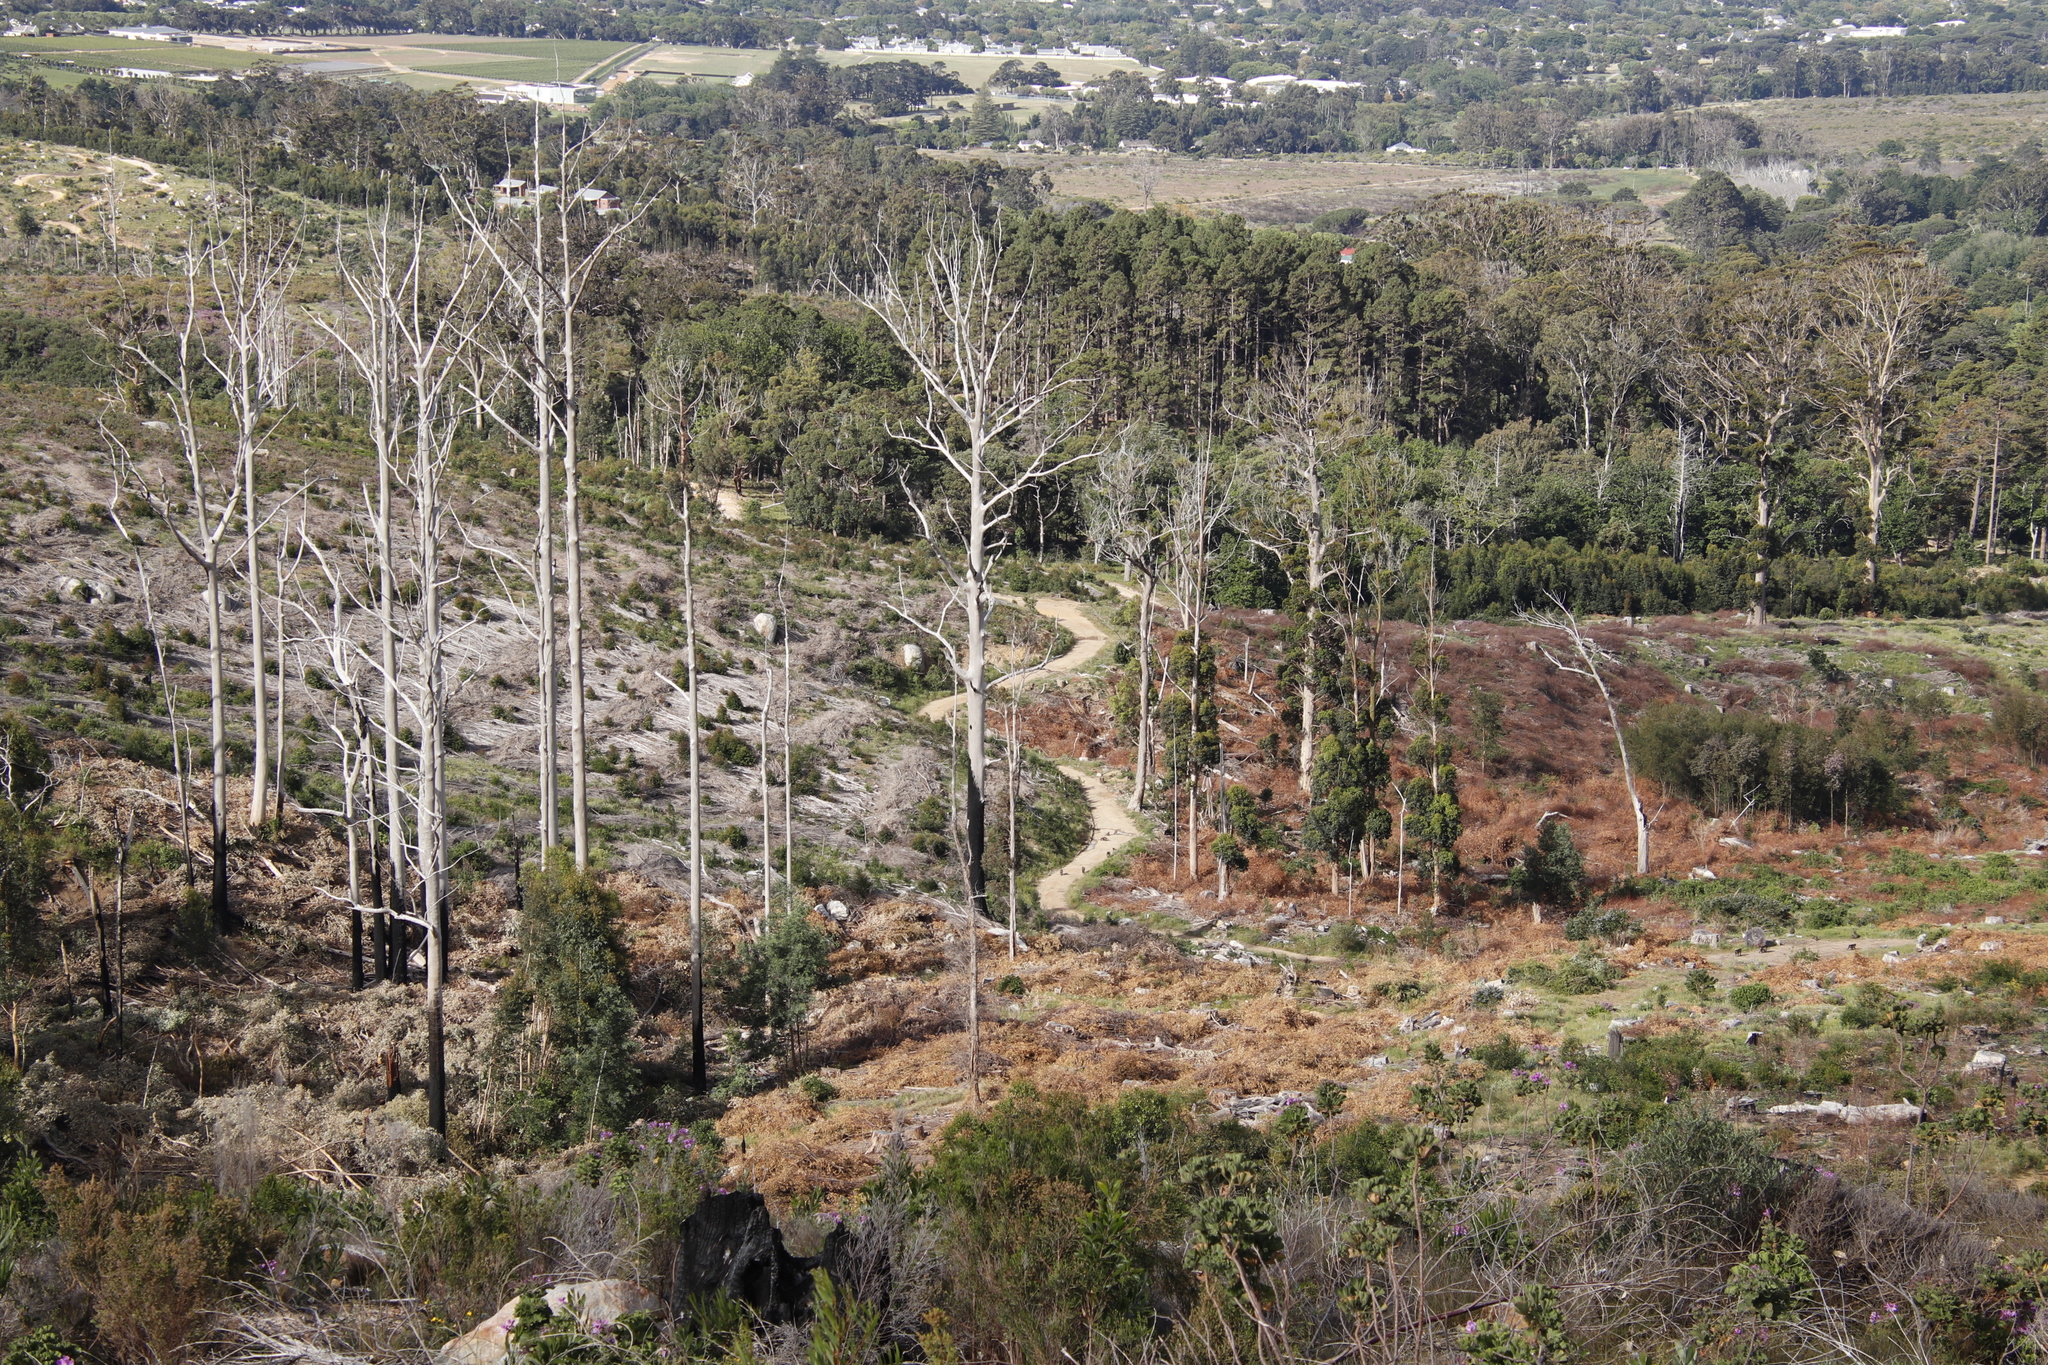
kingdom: Animalia
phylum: Chordata
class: Mammalia
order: Primates
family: Cercopithecidae
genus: Papio
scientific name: Papio ursinus
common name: Chacma baboon
